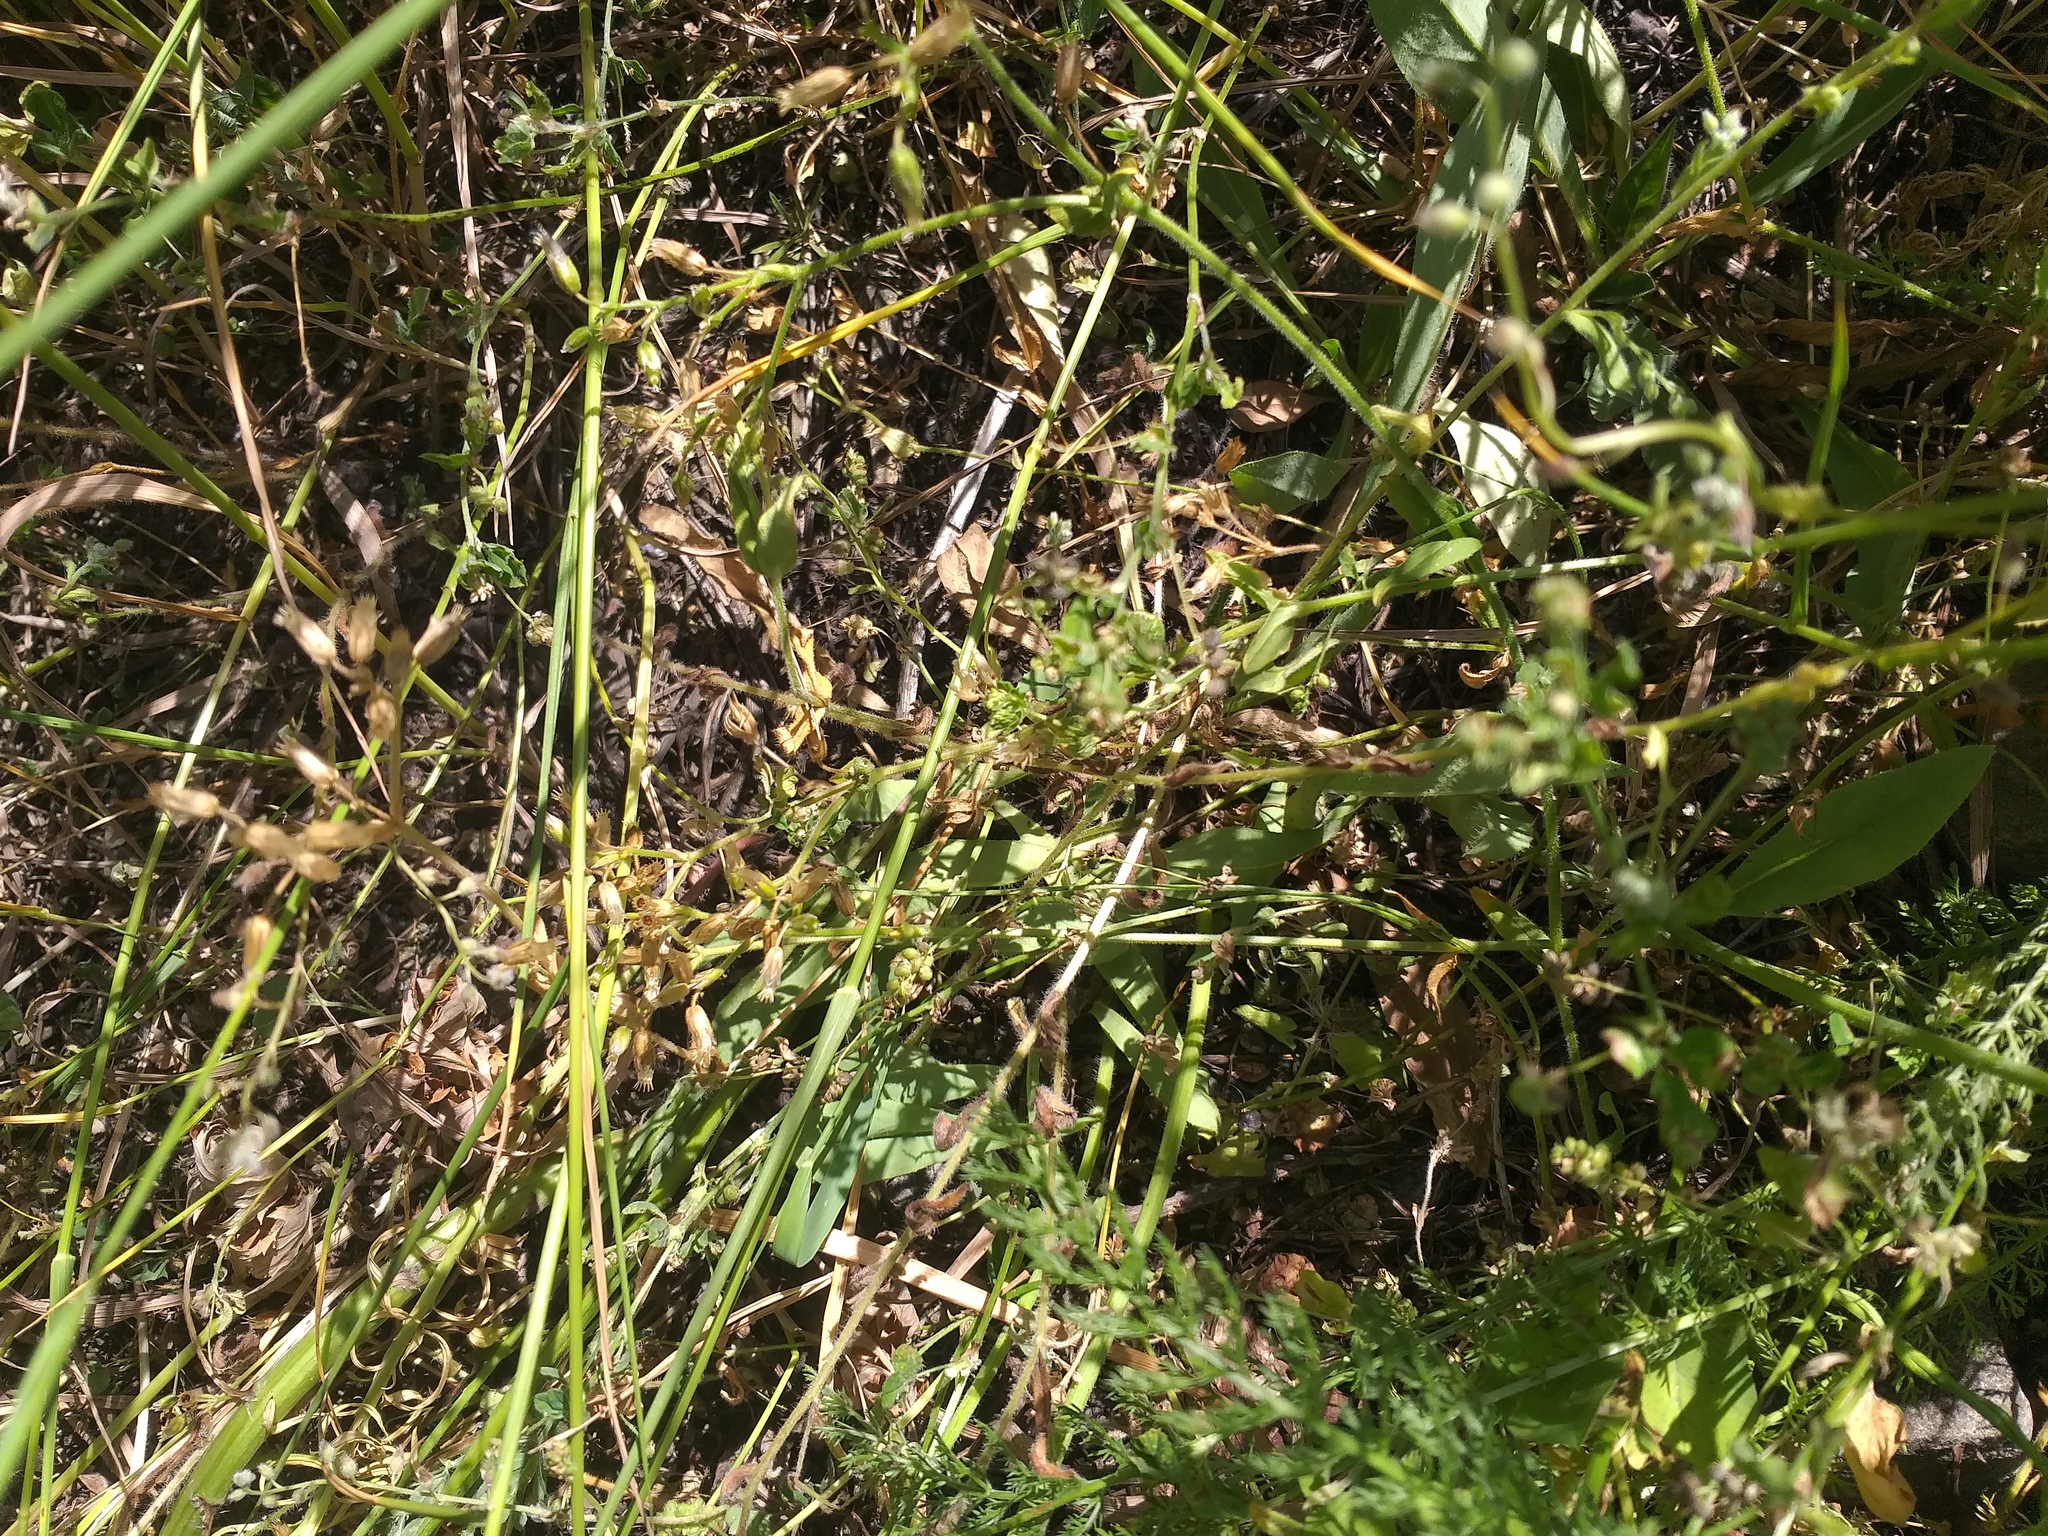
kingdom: Plantae
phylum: Tracheophyta
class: Magnoliopsida
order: Caryophyllales
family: Caryophyllaceae
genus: Cerastium
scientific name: Cerastium holosteoides
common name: Big chickweed
